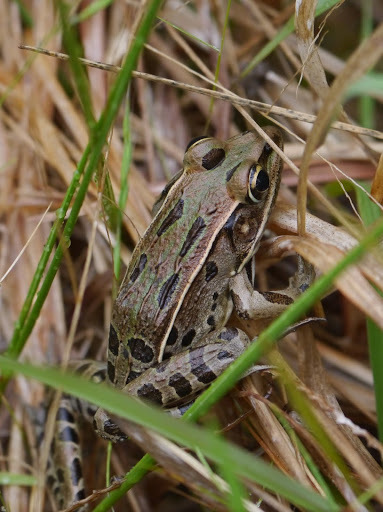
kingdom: Animalia
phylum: Chordata
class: Amphibia
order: Anura
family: Ranidae
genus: Lithobates
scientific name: Lithobates sphenocephalus
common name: Southern leopard frog
